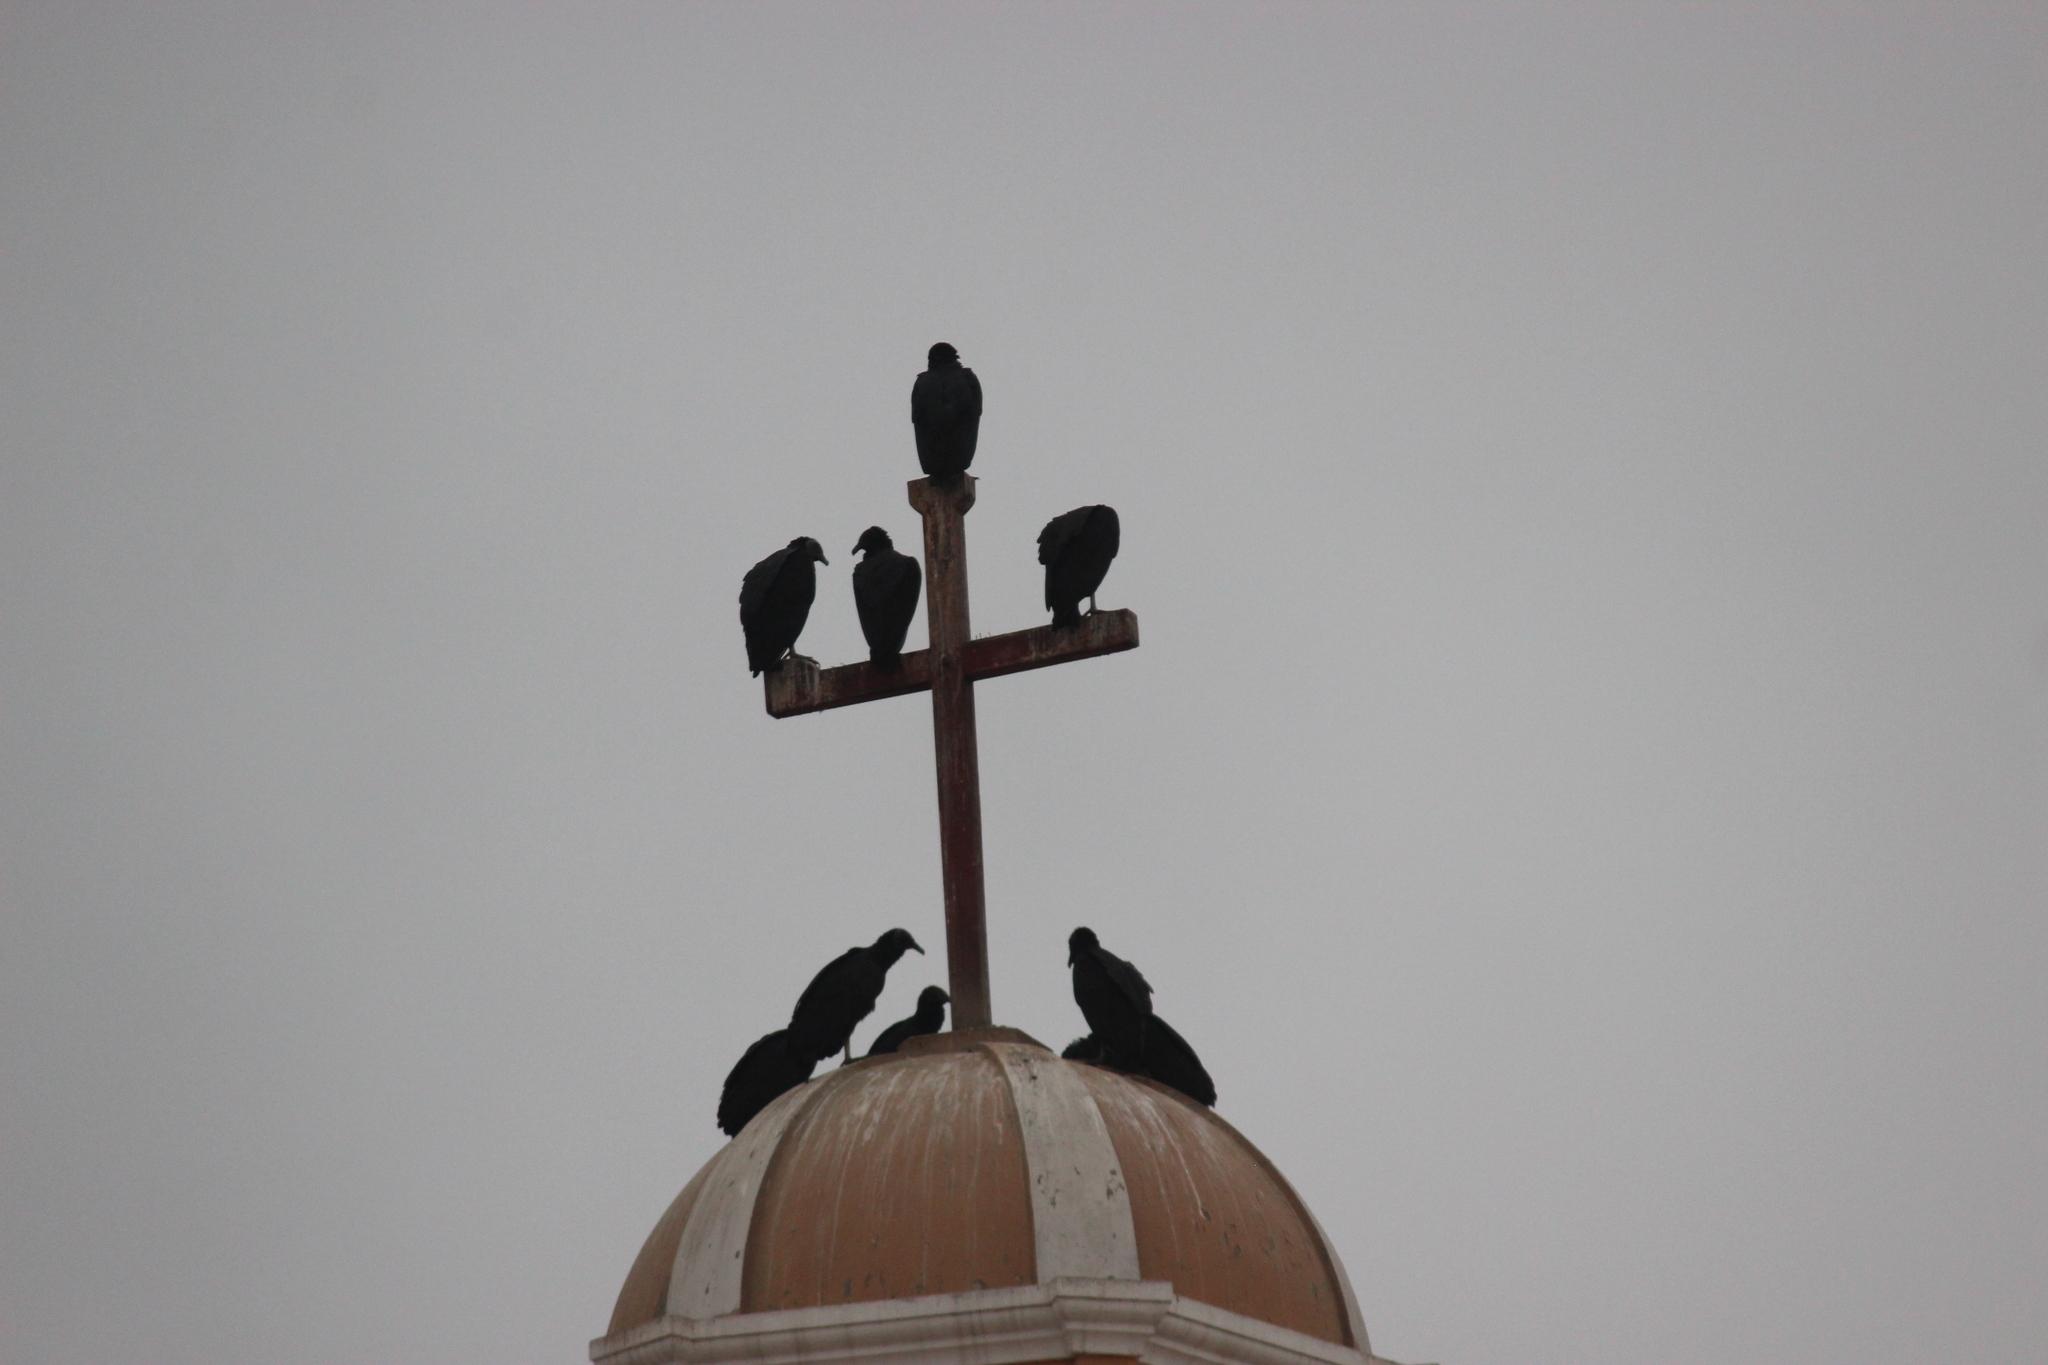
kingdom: Animalia
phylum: Chordata
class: Aves
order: Accipitriformes
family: Cathartidae
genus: Coragyps
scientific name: Coragyps atratus
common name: Black vulture
